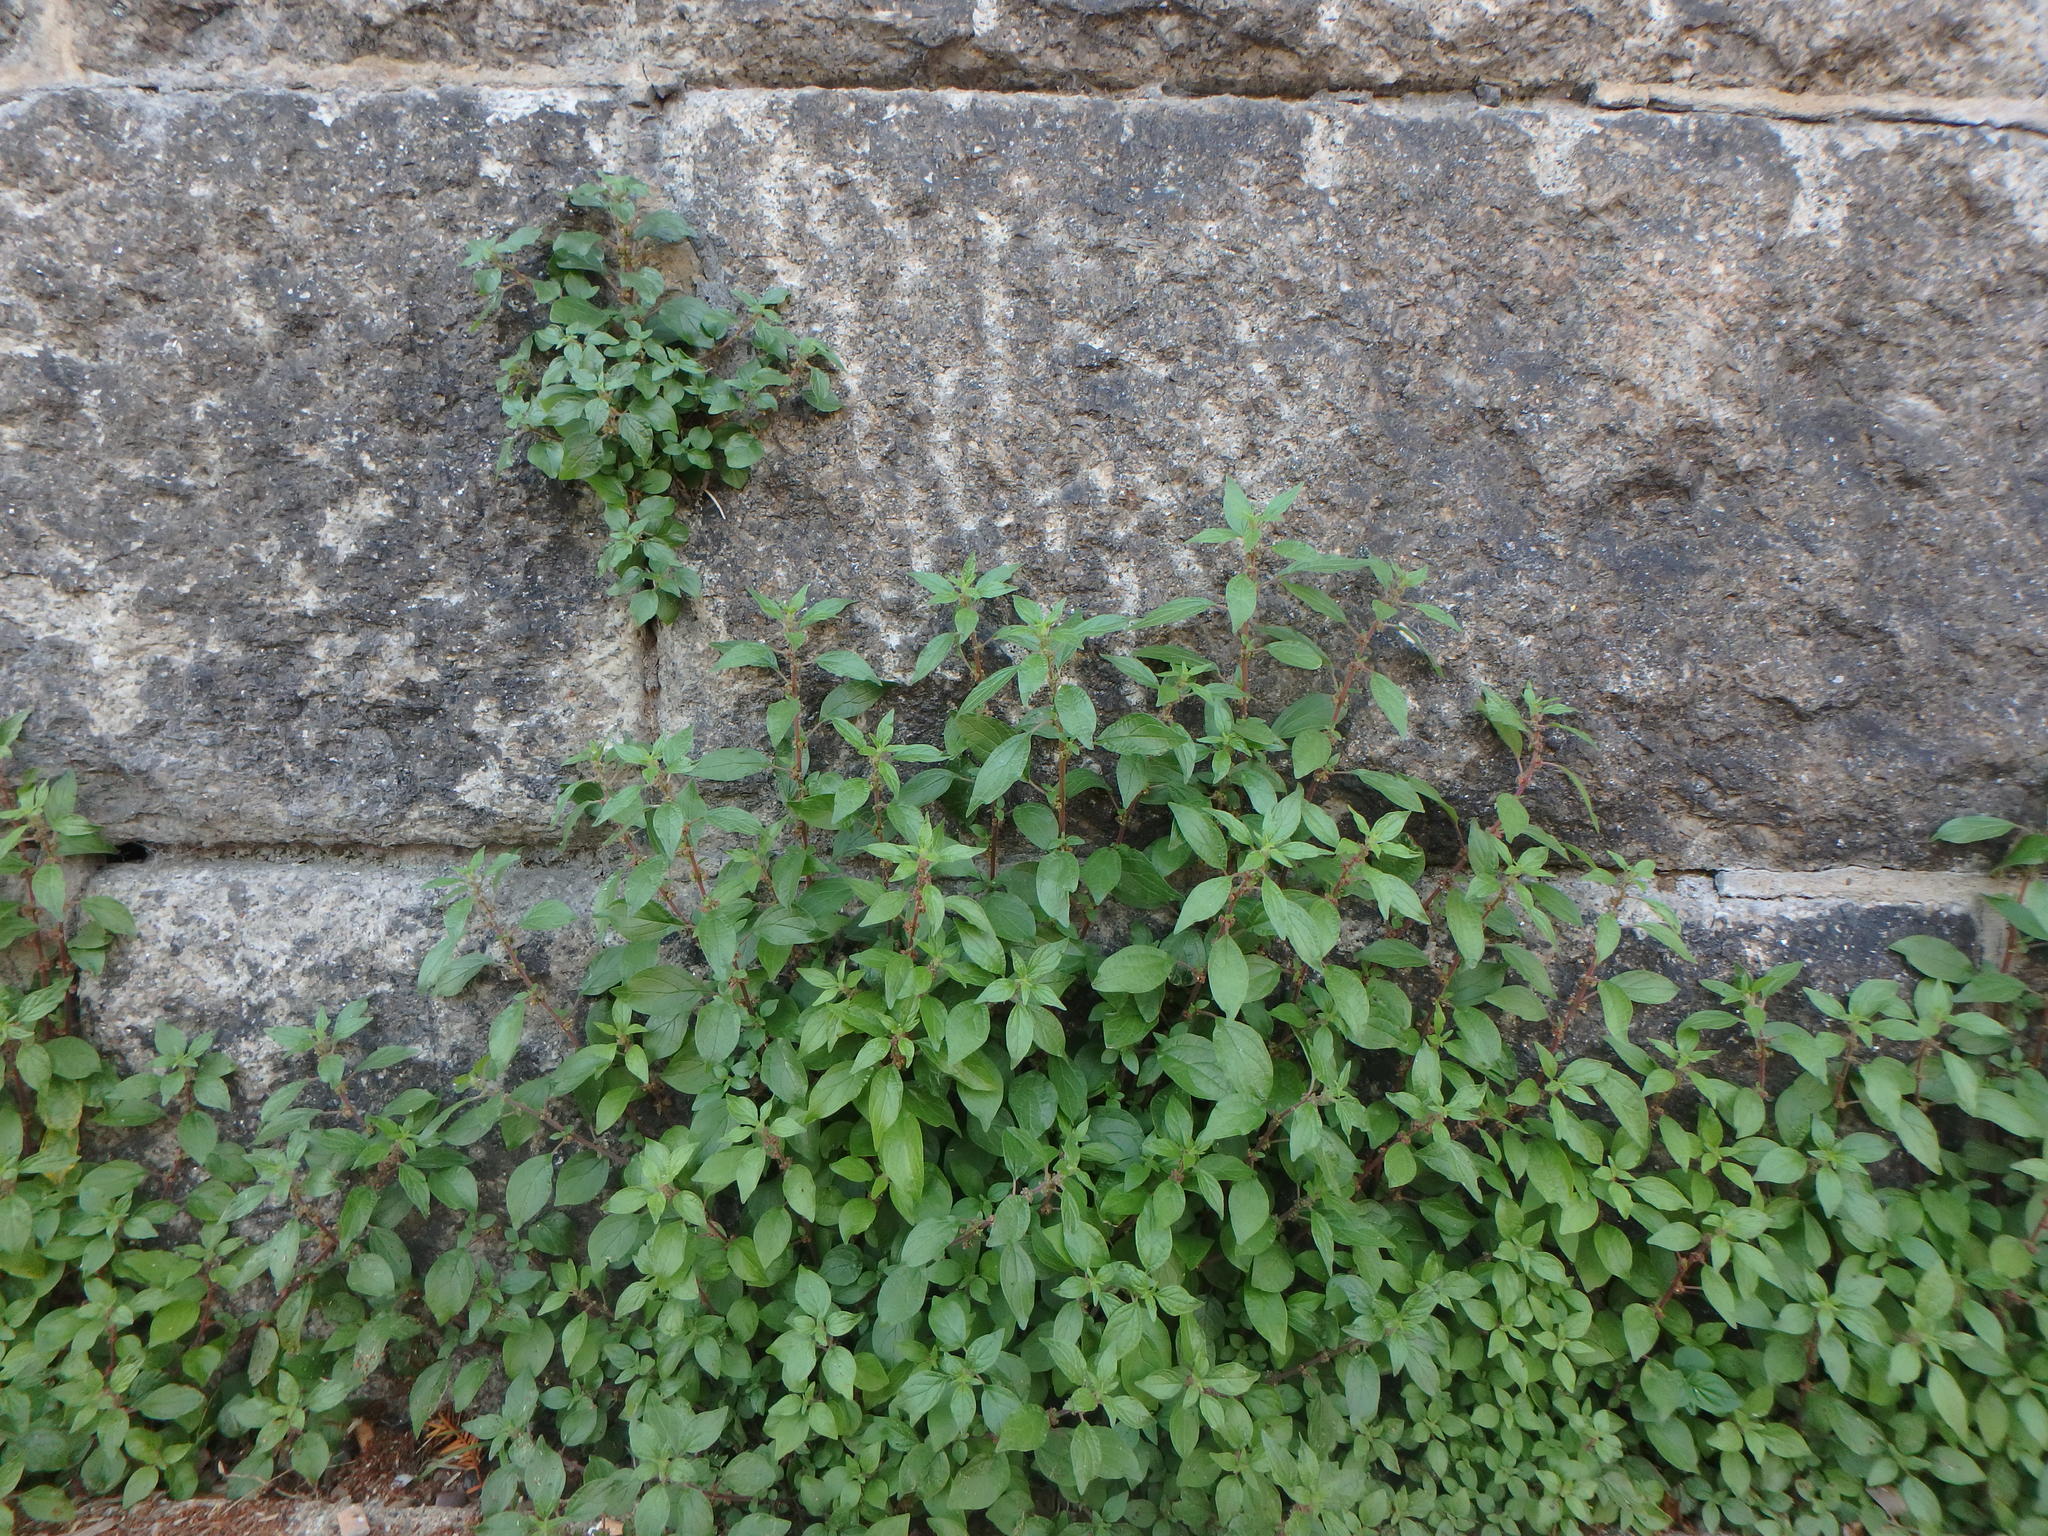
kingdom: Plantae
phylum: Tracheophyta
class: Magnoliopsida
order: Rosales
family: Urticaceae
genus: Parietaria
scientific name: Parietaria judaica
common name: Pellitory-of-the-wall
